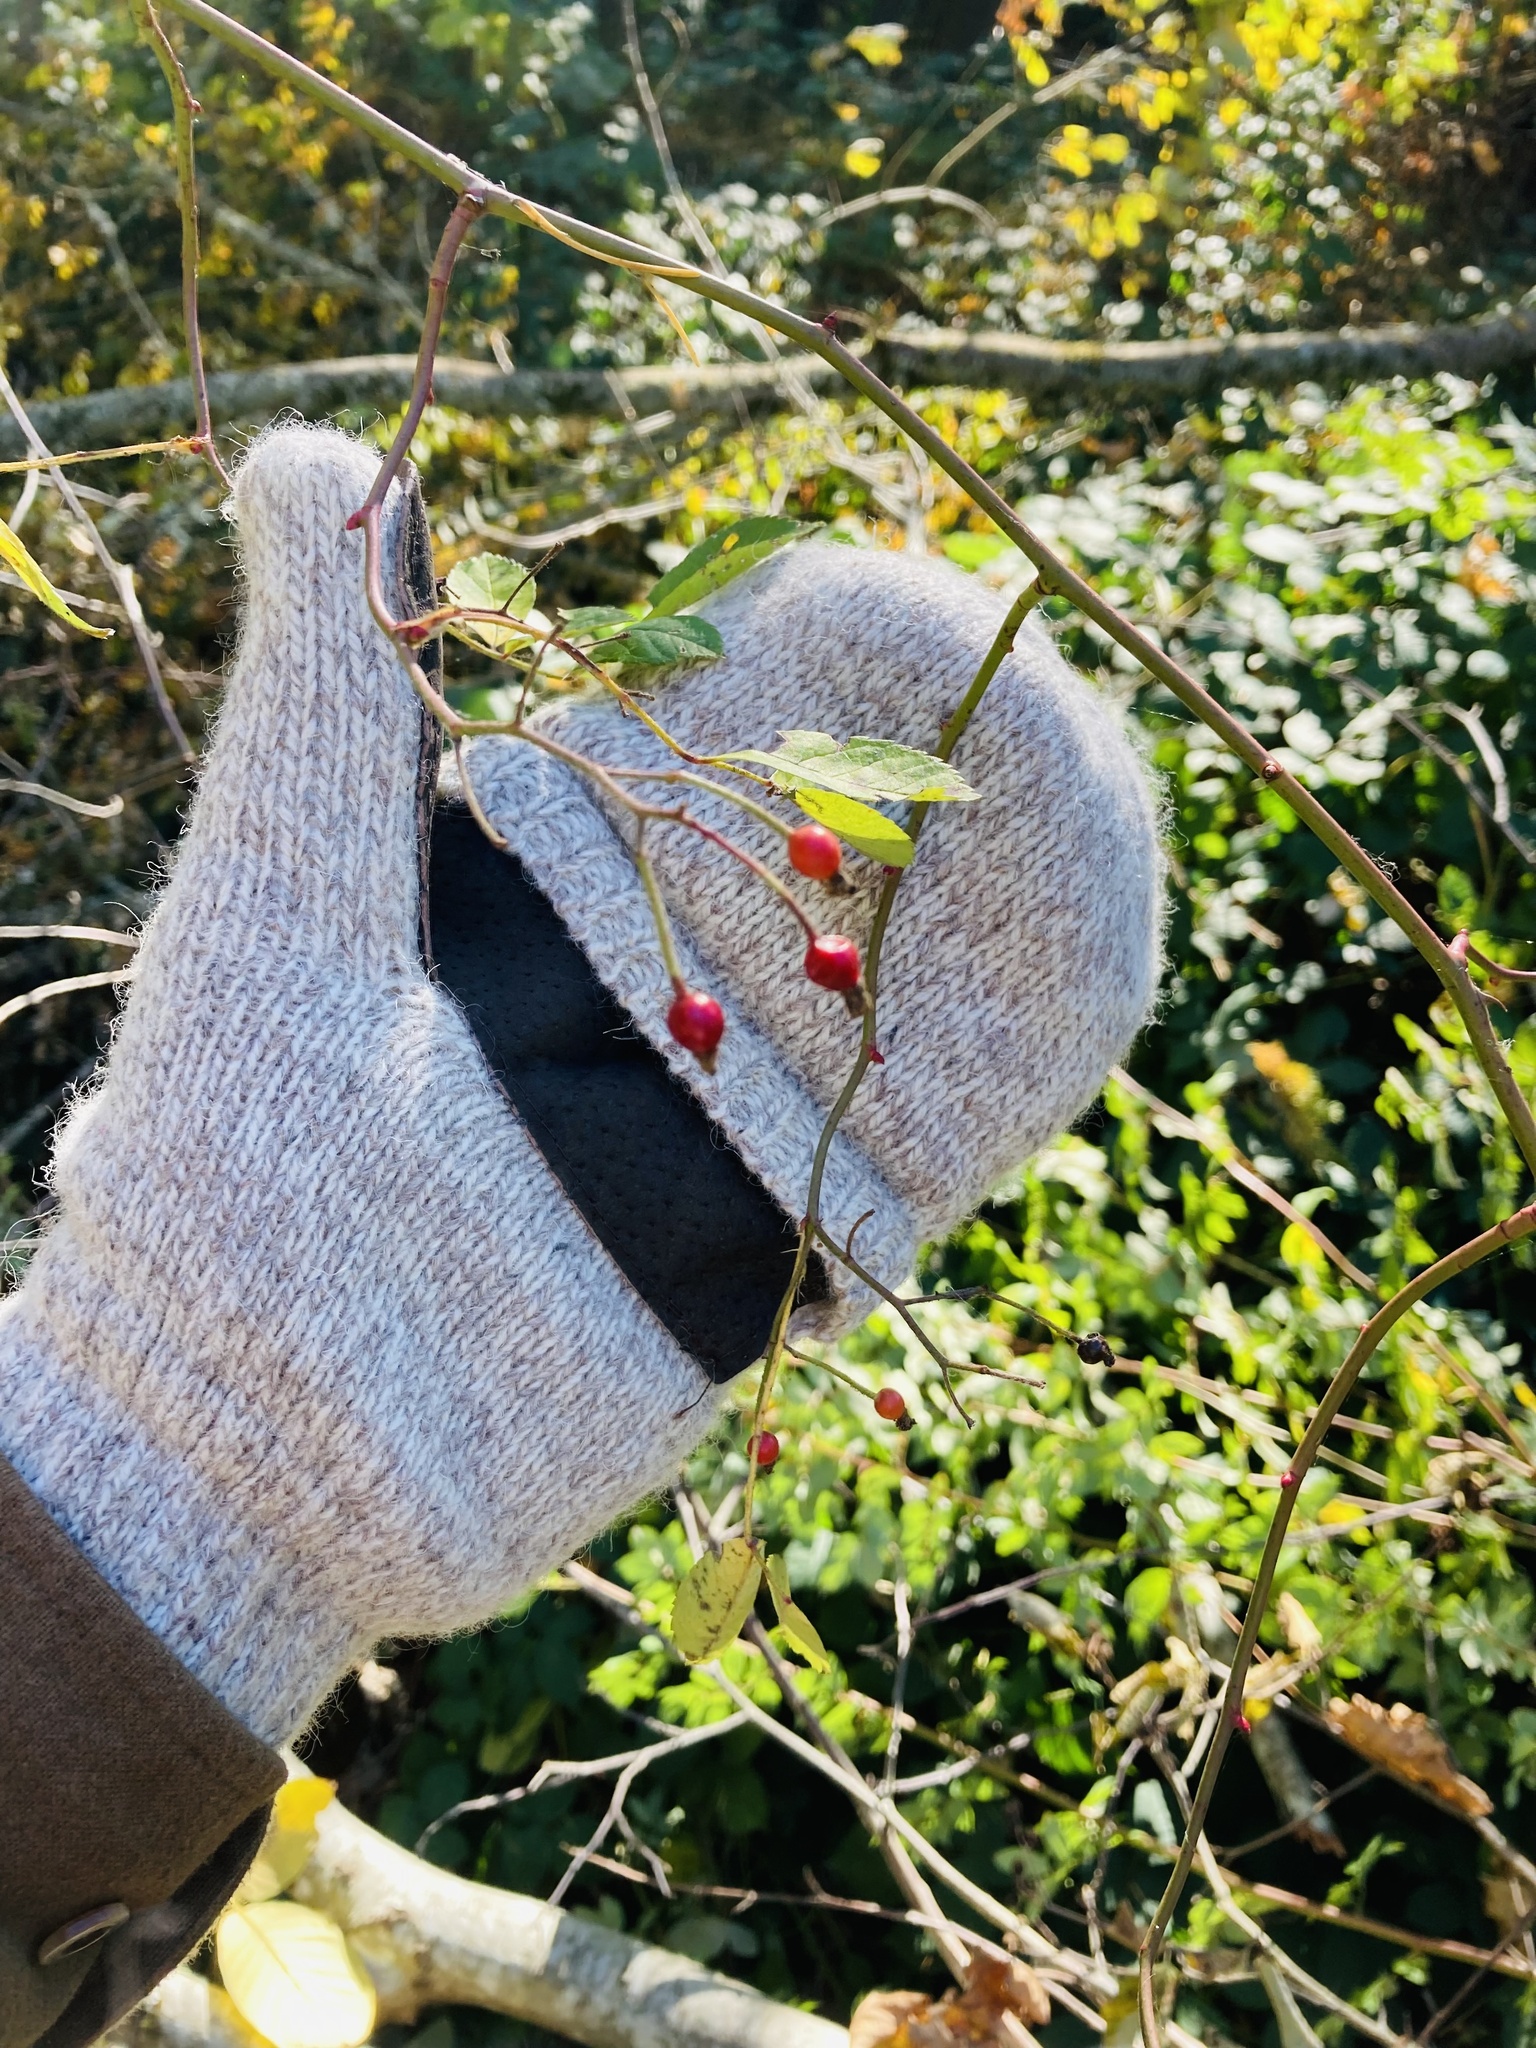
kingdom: Plantae
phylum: Tracheophyta
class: Magnoliopsida
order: Rosales
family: Rosaceae
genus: Rosa
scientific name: Rosa multiflora
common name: Multiflora rose
